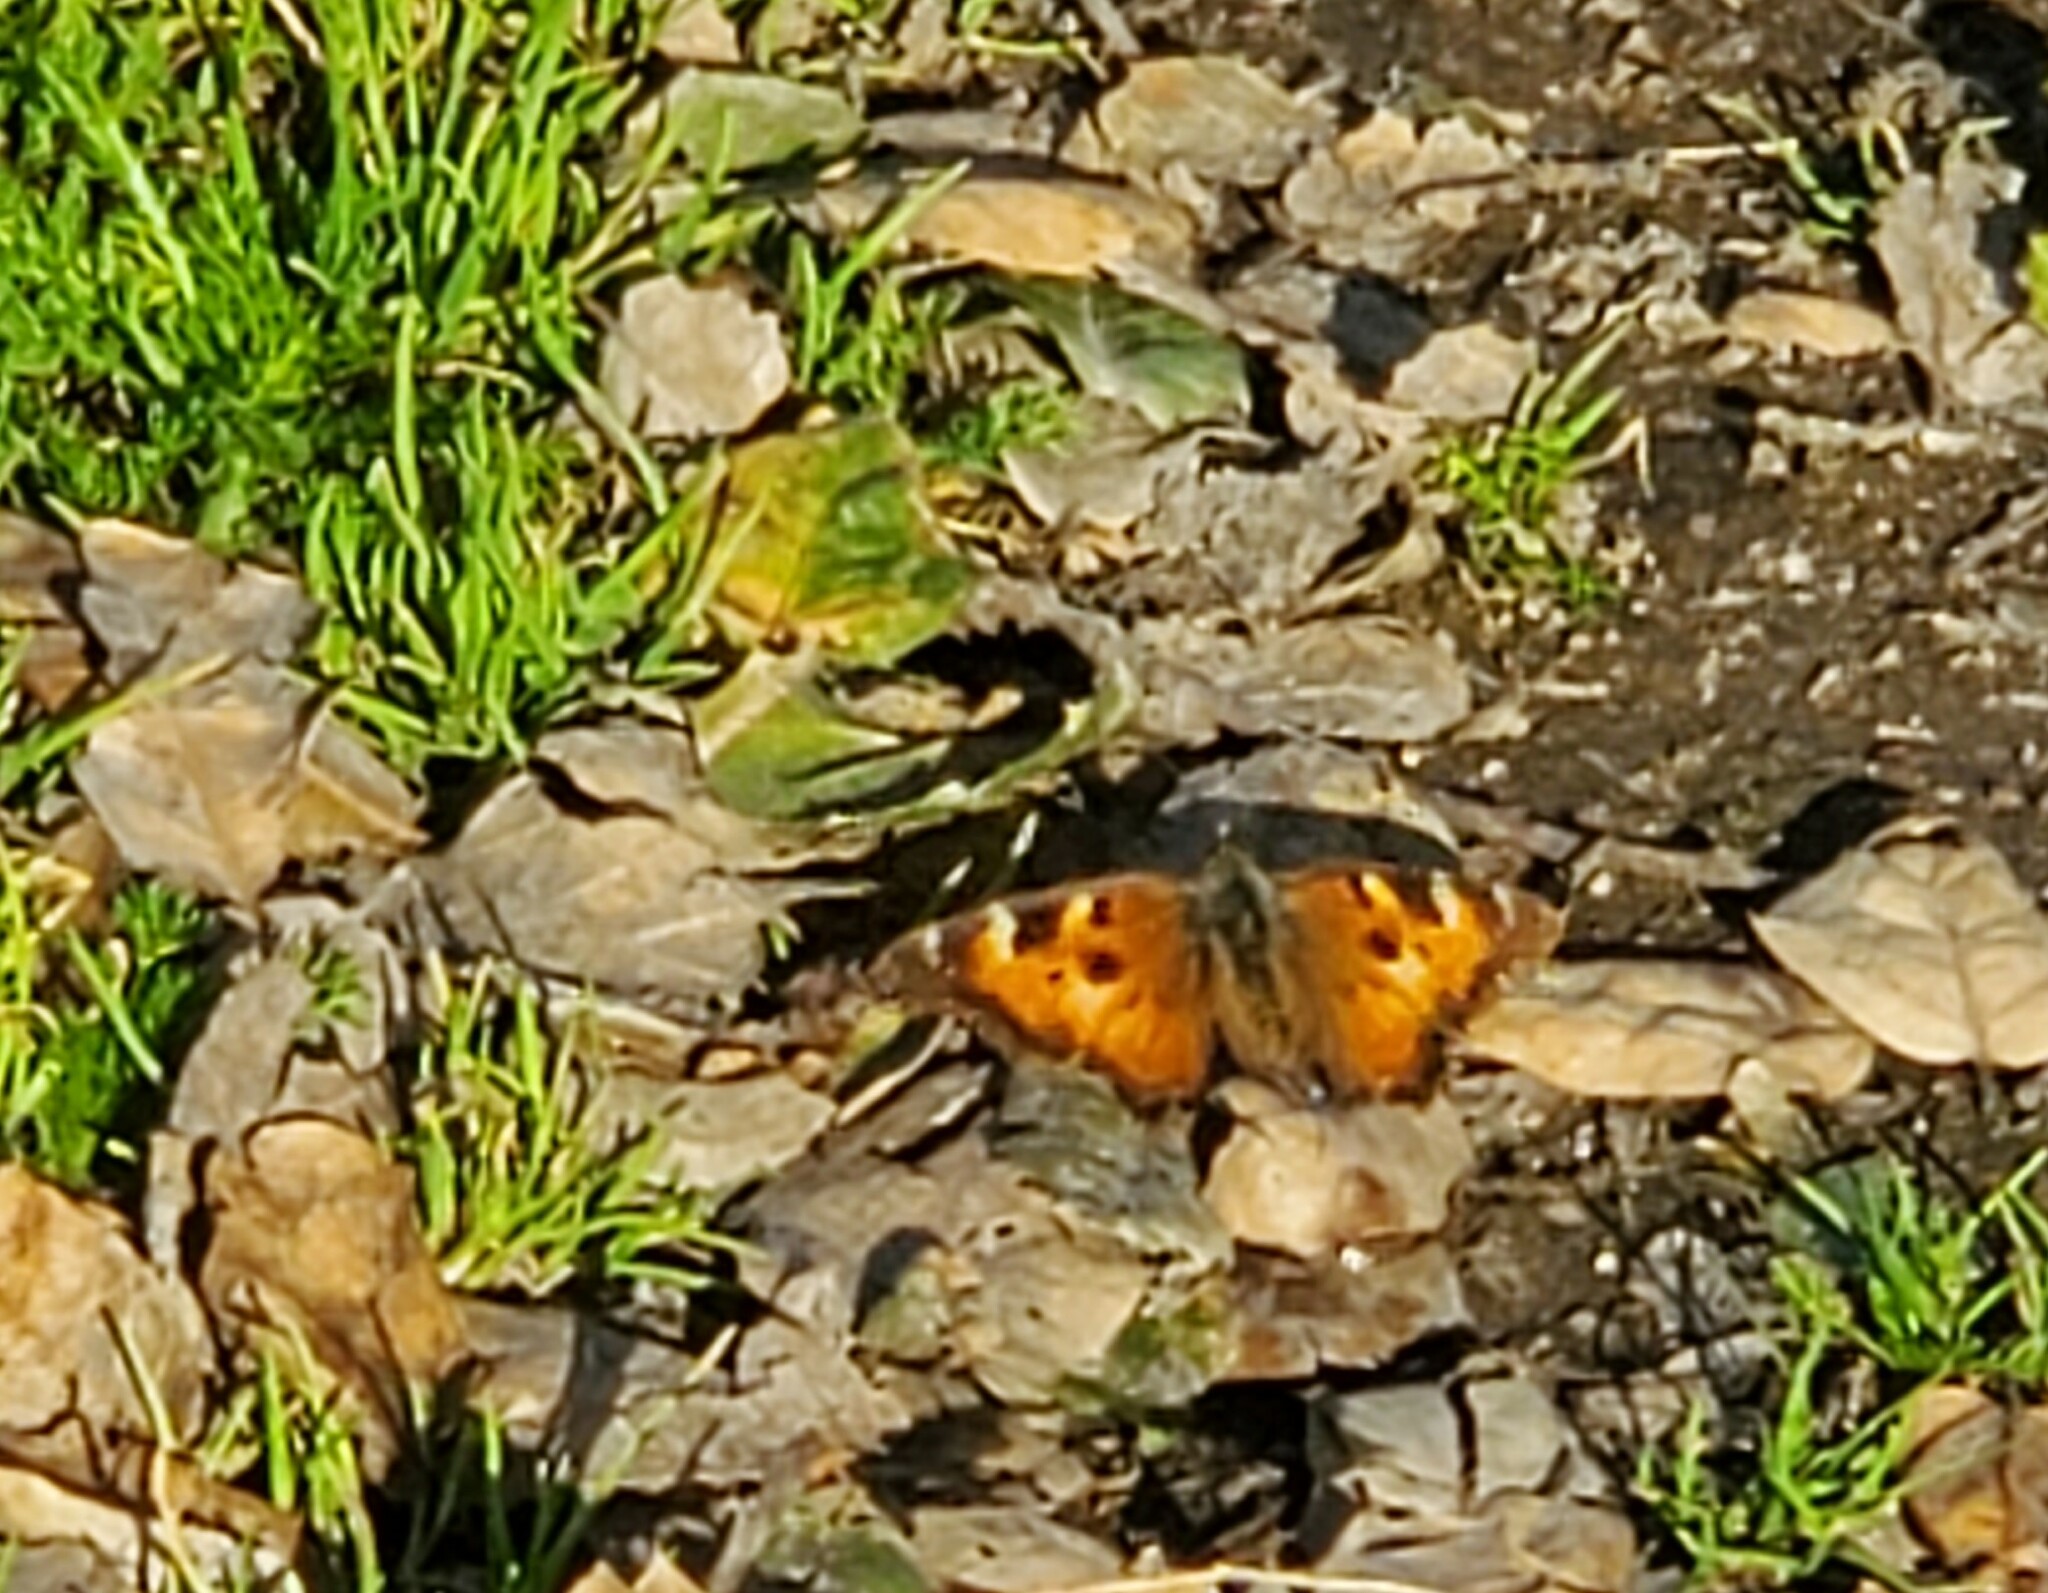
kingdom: Animalia
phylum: Arthropoda
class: Insecta
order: Lepidoptera
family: Nymphalidae
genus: Nymphalis
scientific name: Nymphalis californica
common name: California tortoiseshell
